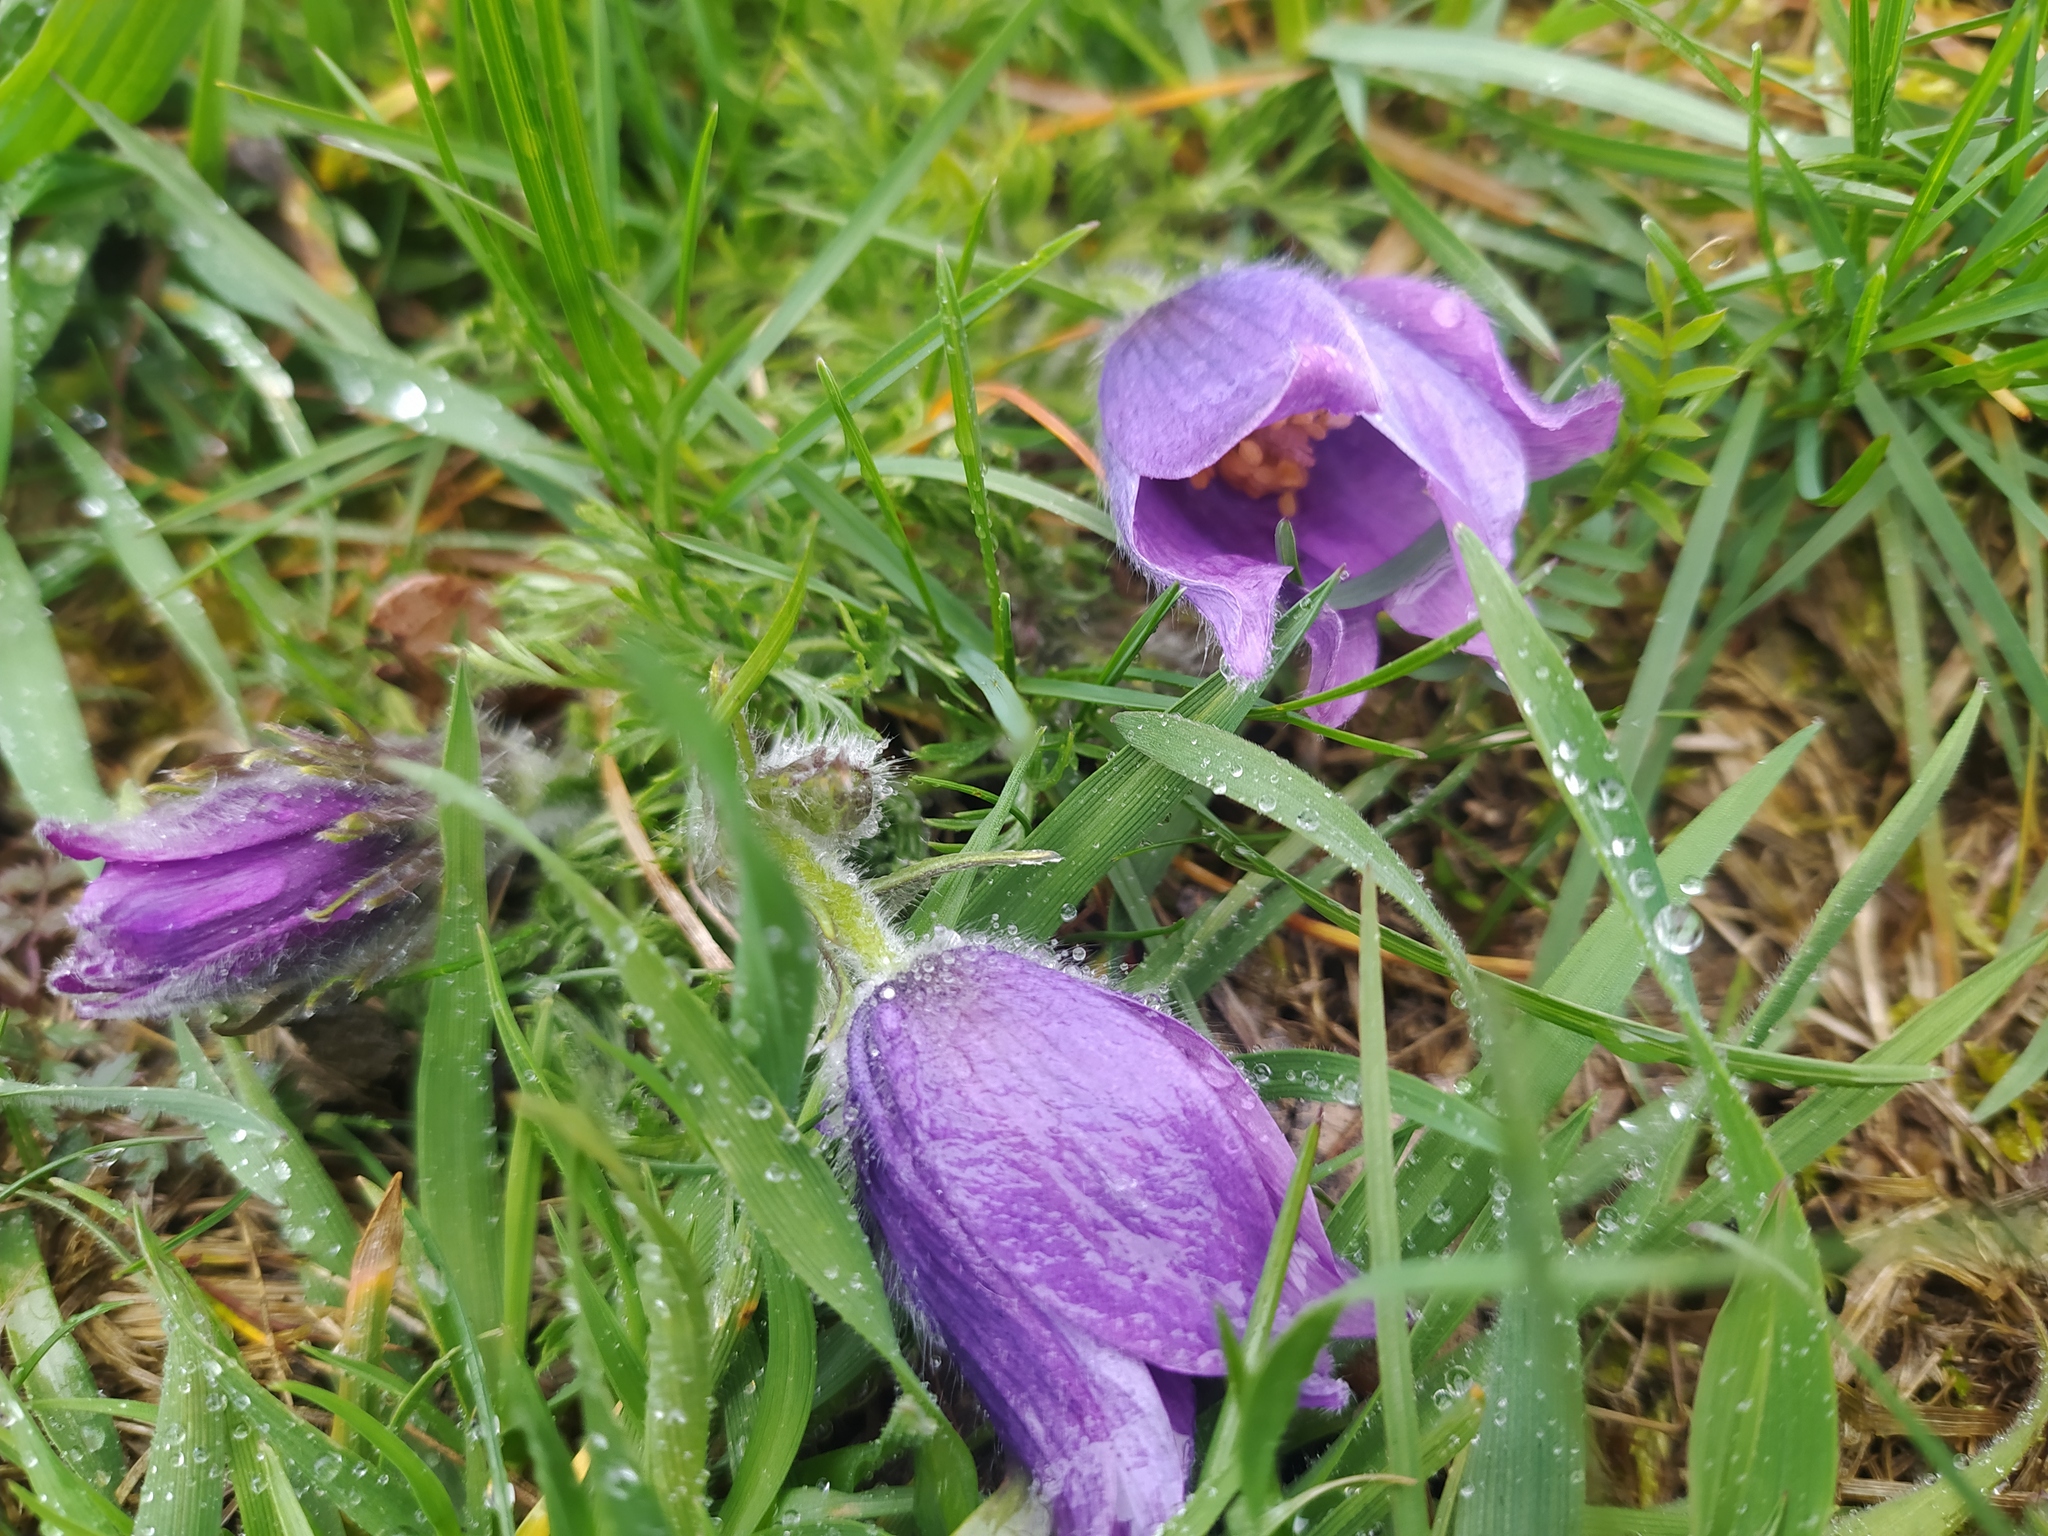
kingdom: Plantae
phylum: Tracheophyta
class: Magnoliopsida
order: Ranunculales
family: Ranunculaceae
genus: Pulsatilla
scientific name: Pulsatilla vulgaris
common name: Pasqueflower
